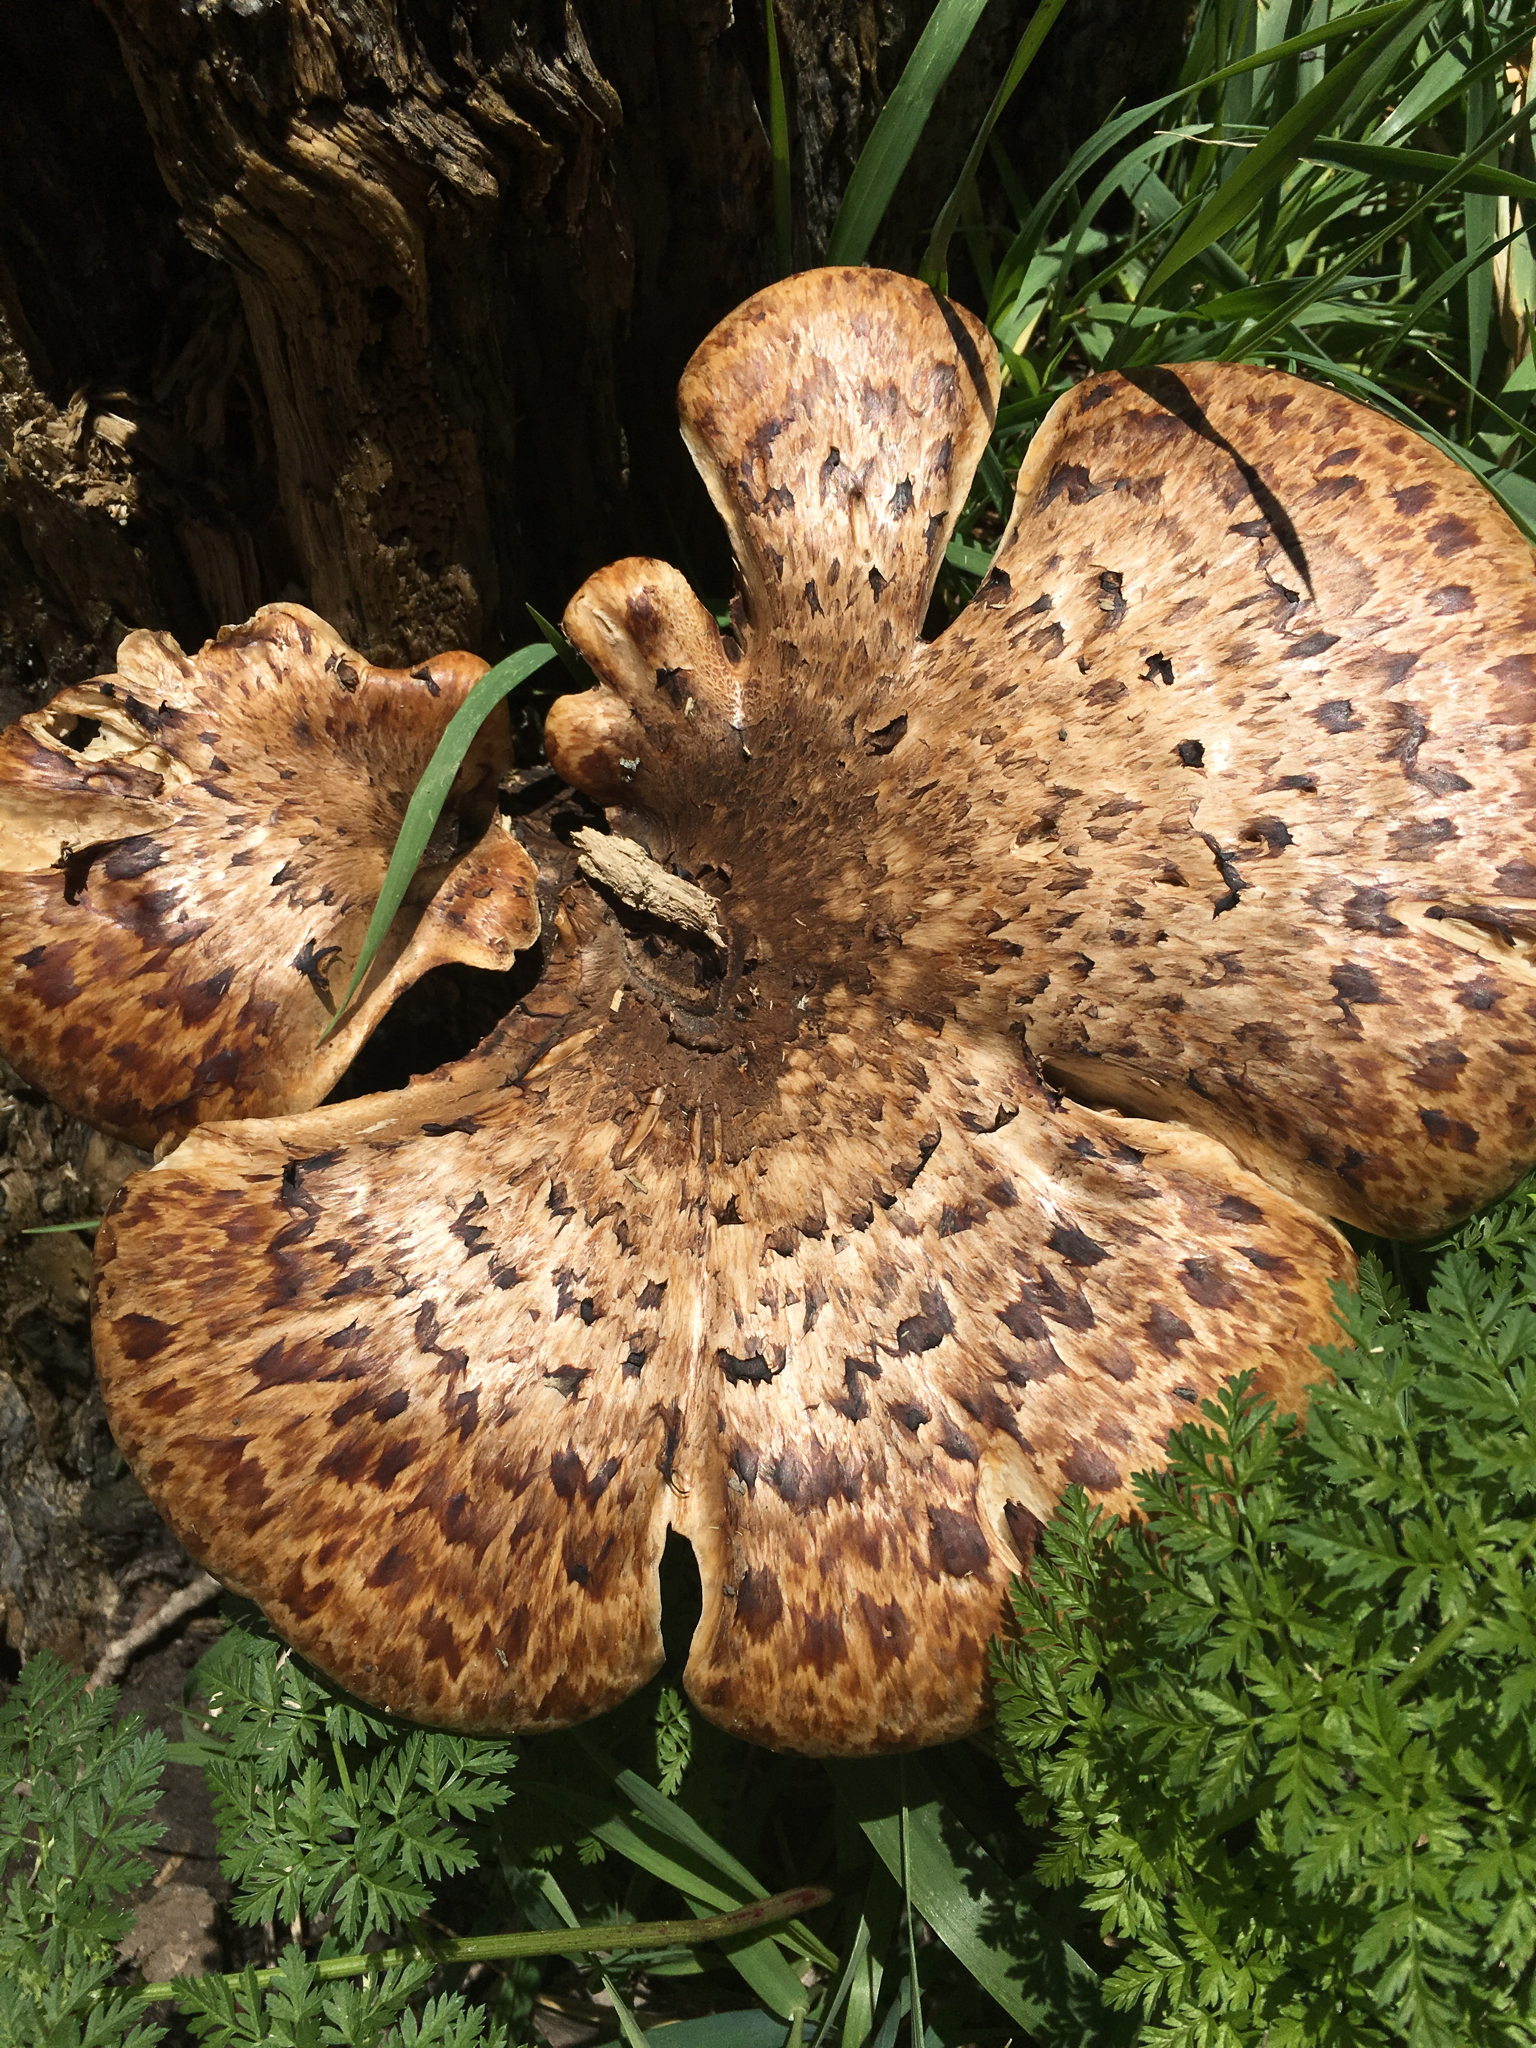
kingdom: Fungi
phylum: Basidiomycota
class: Agaricomycetes
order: Polyporales
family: Polyporaceae
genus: Cerioporus
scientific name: Cerioporus squamosus
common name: Dryad's saddle
